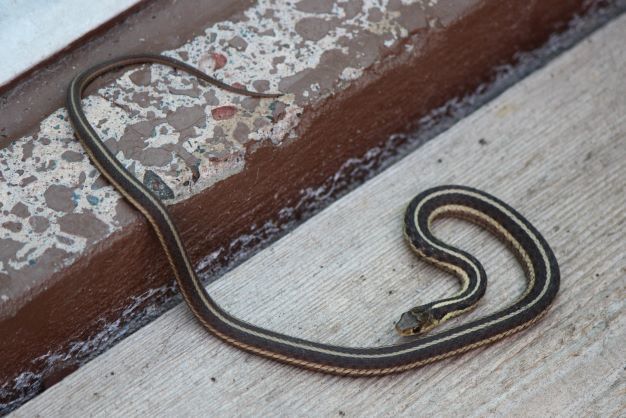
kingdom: Animalia
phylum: Chordata
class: Squamata
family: Colubridae
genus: Thamnophis
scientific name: Thamnophis sirtalis
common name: Common garter snake
